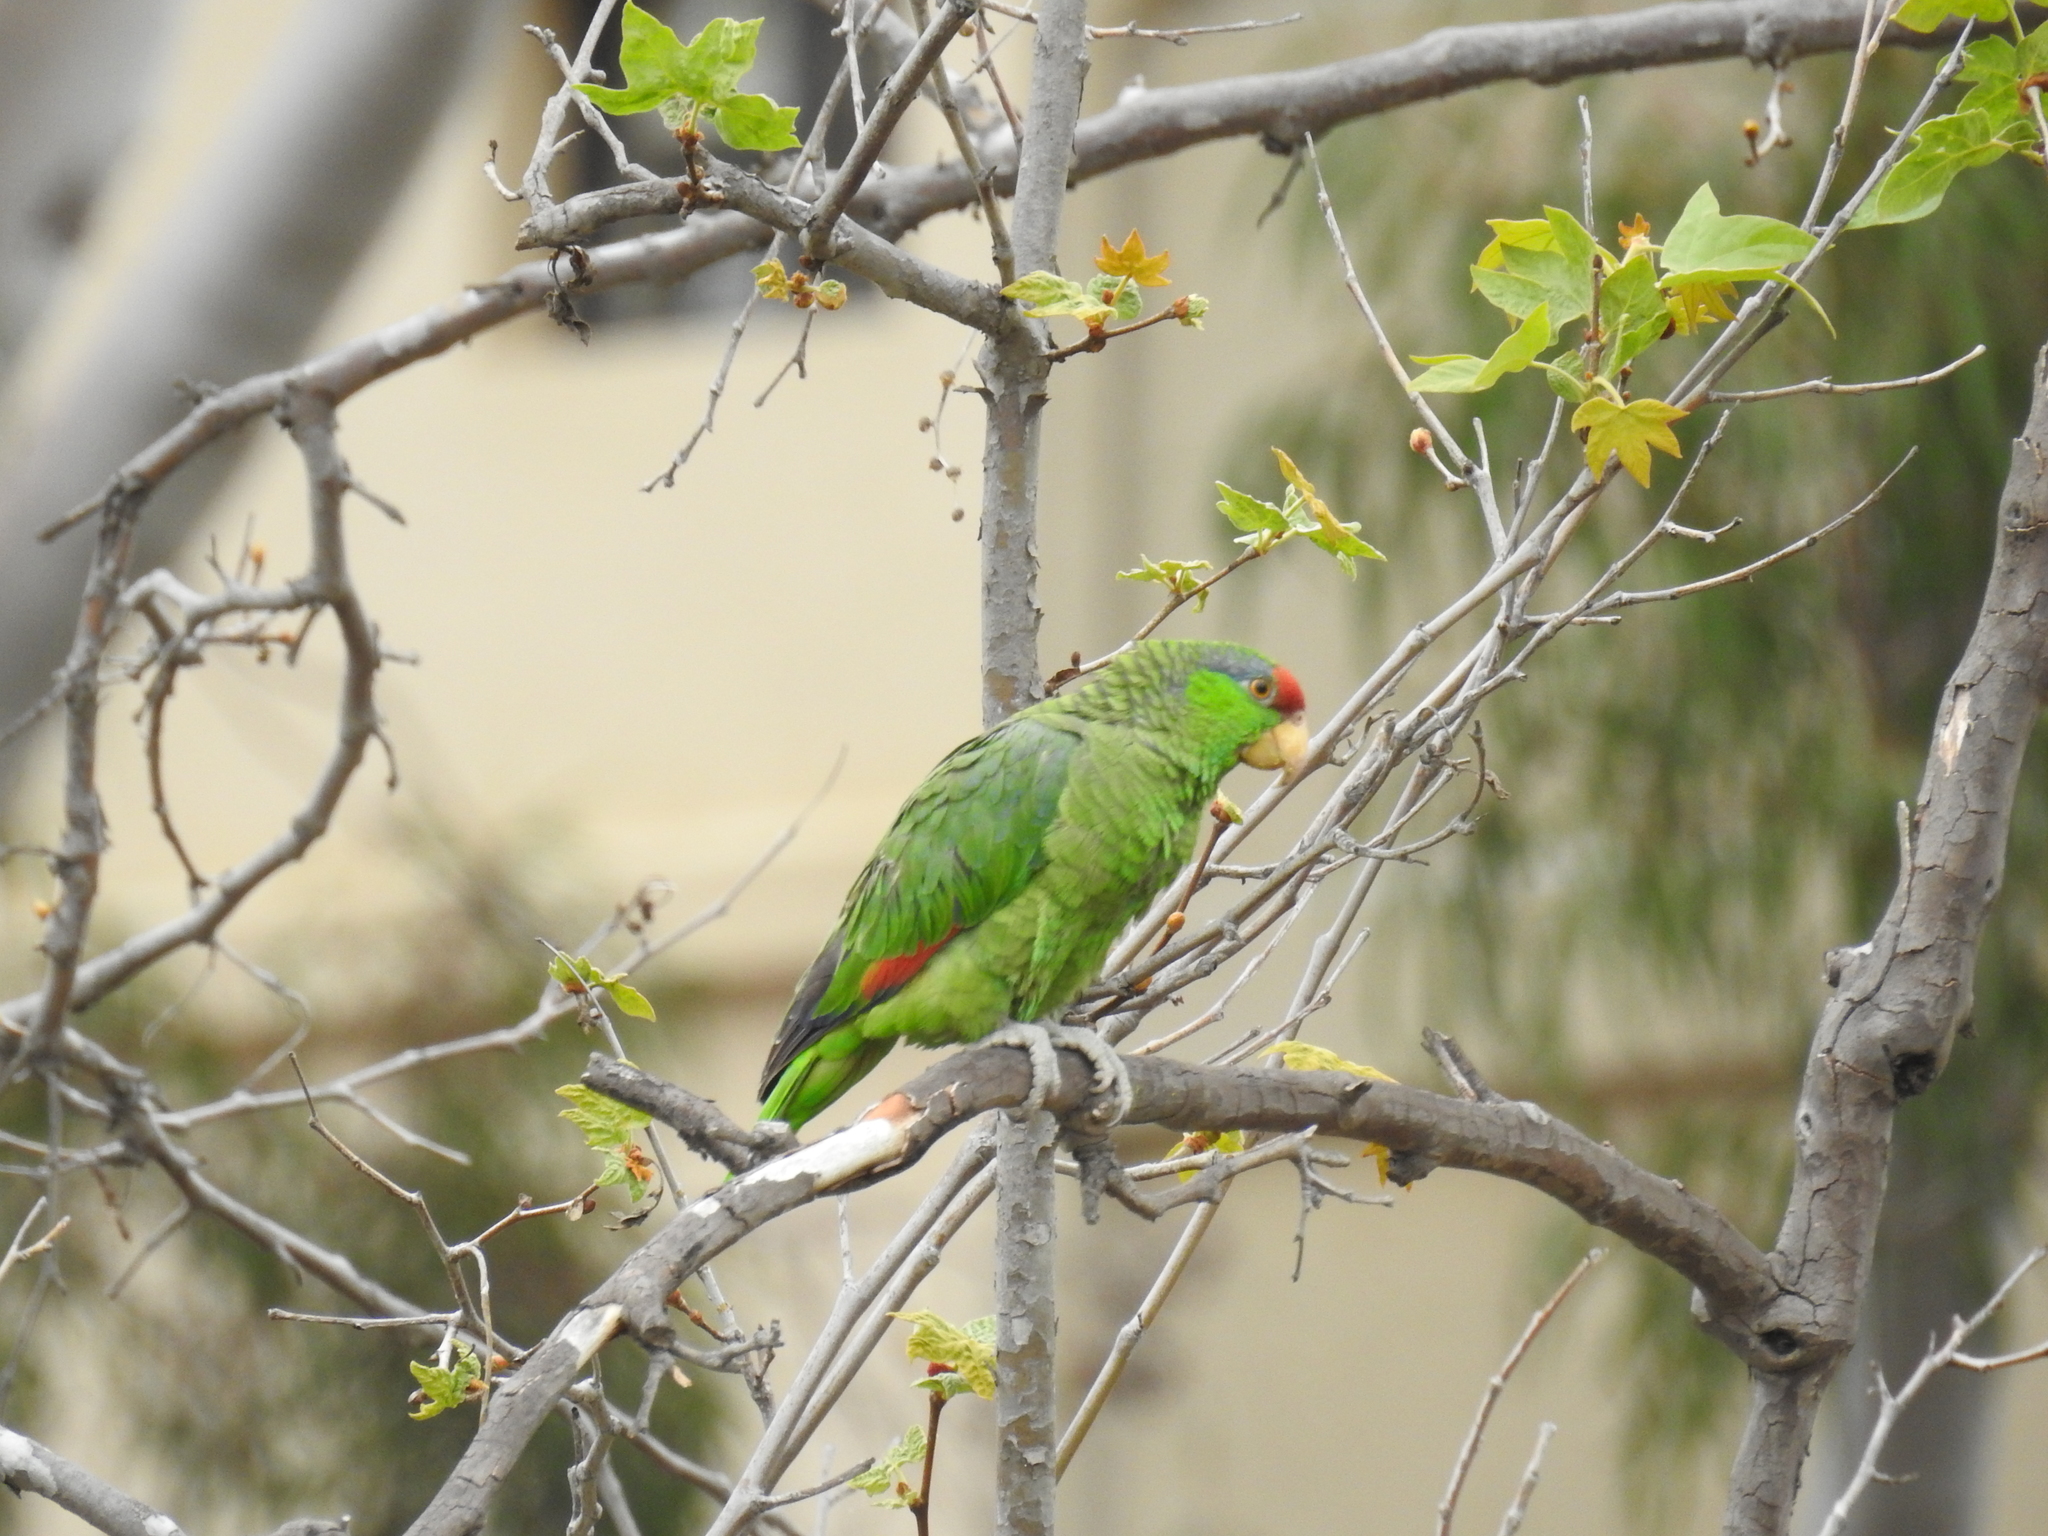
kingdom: Animalia
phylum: Chordata
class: Aves
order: Psittaciformes
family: Psittacidae
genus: Amazona
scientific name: Amazona viridigenalis
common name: Red-crowned amazon
